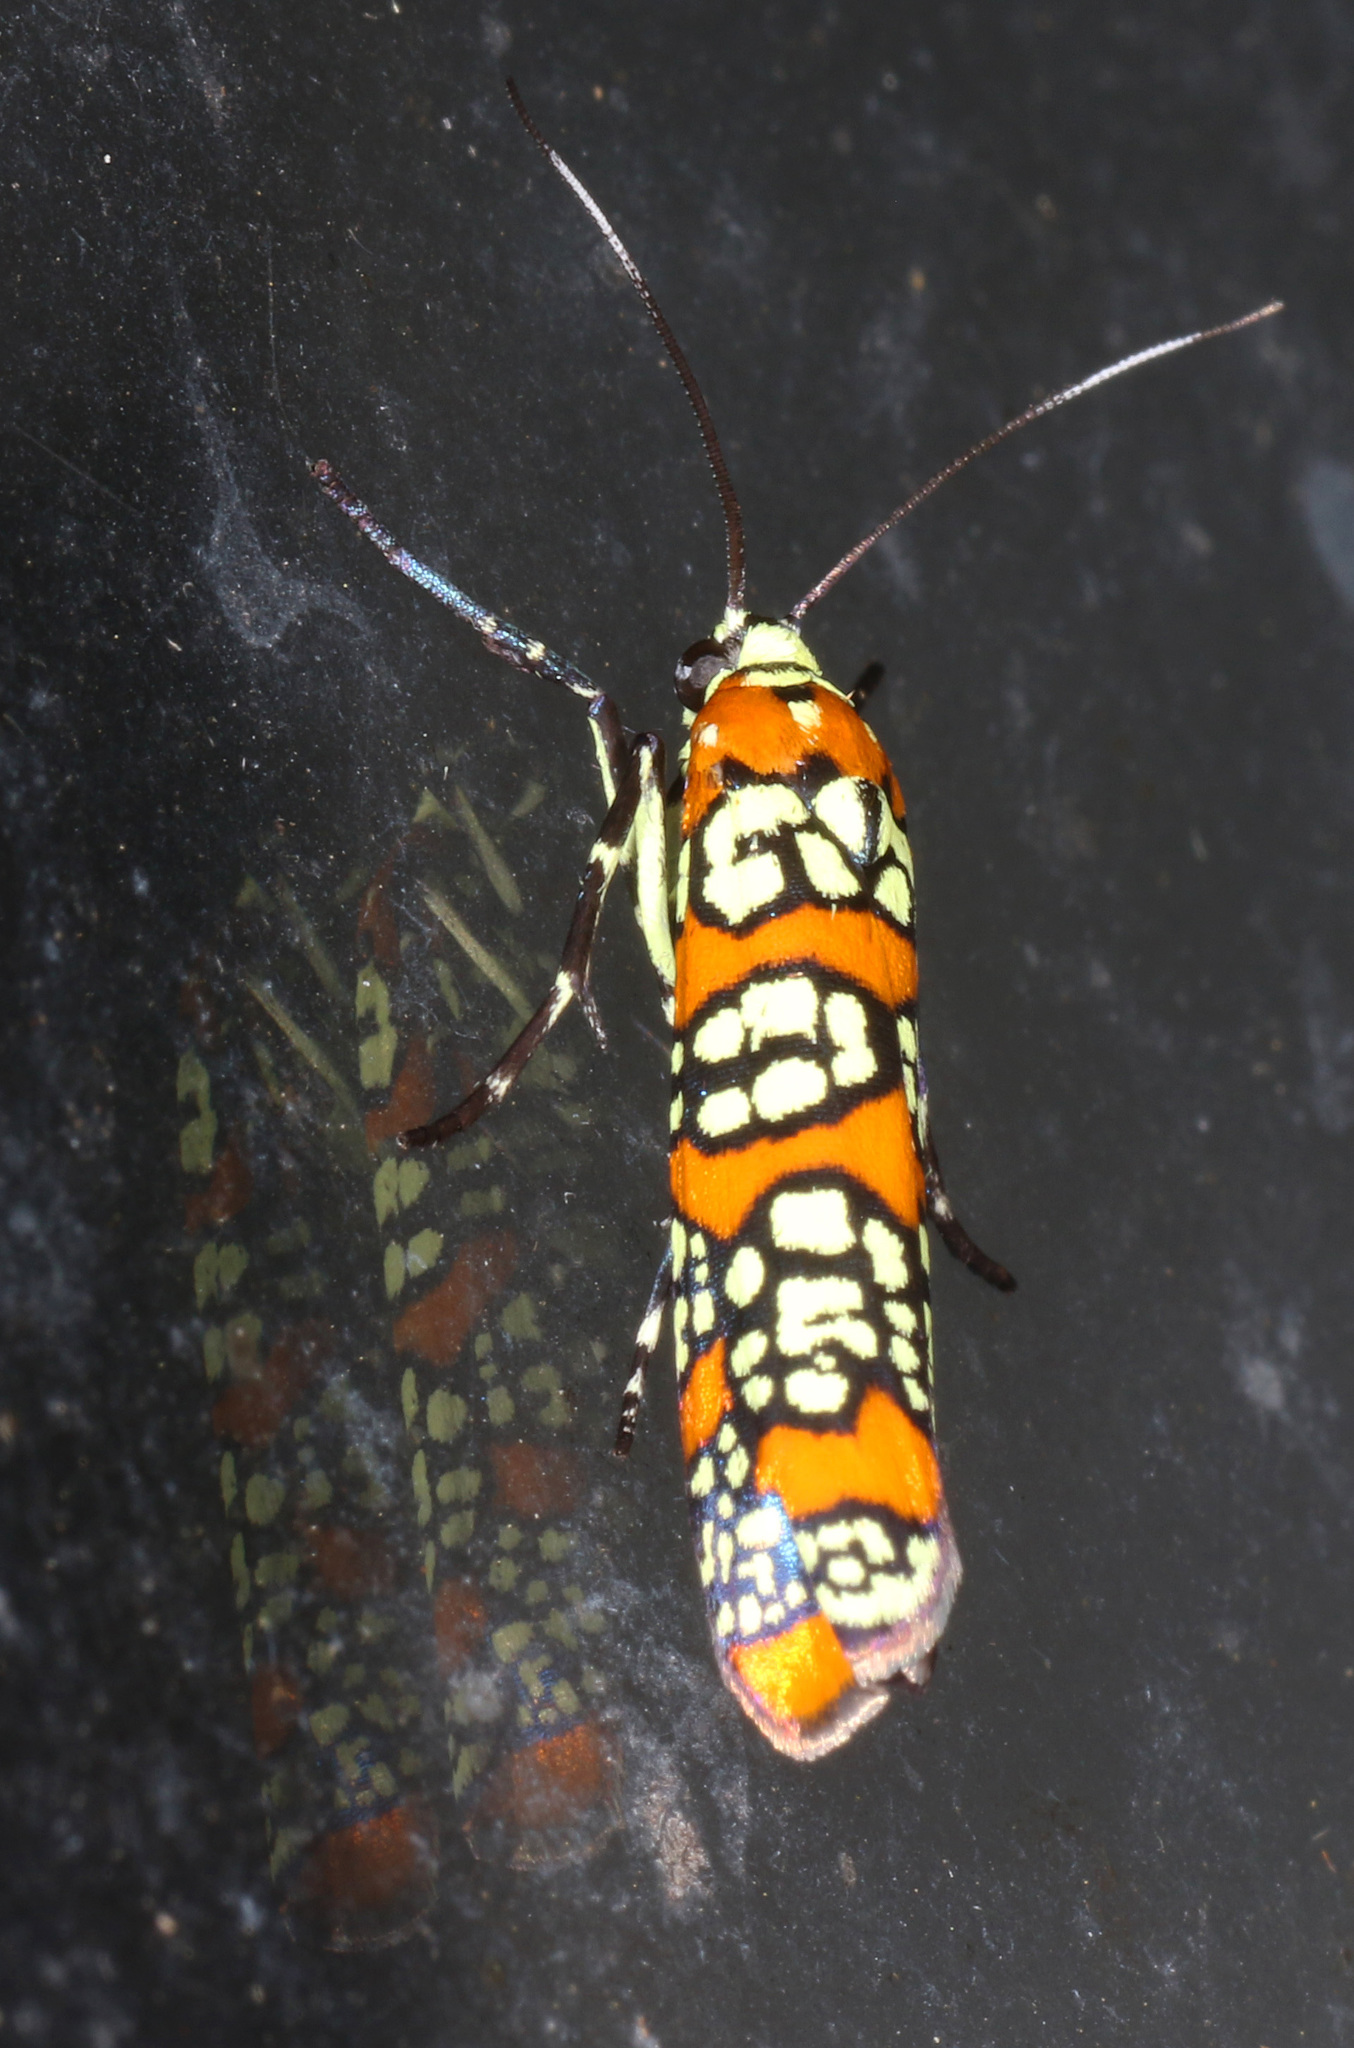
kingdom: Animalia
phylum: Arthropoda
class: Insecta
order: Lepidoptera
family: Attevidae
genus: Atteva
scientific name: Atteva punctella
